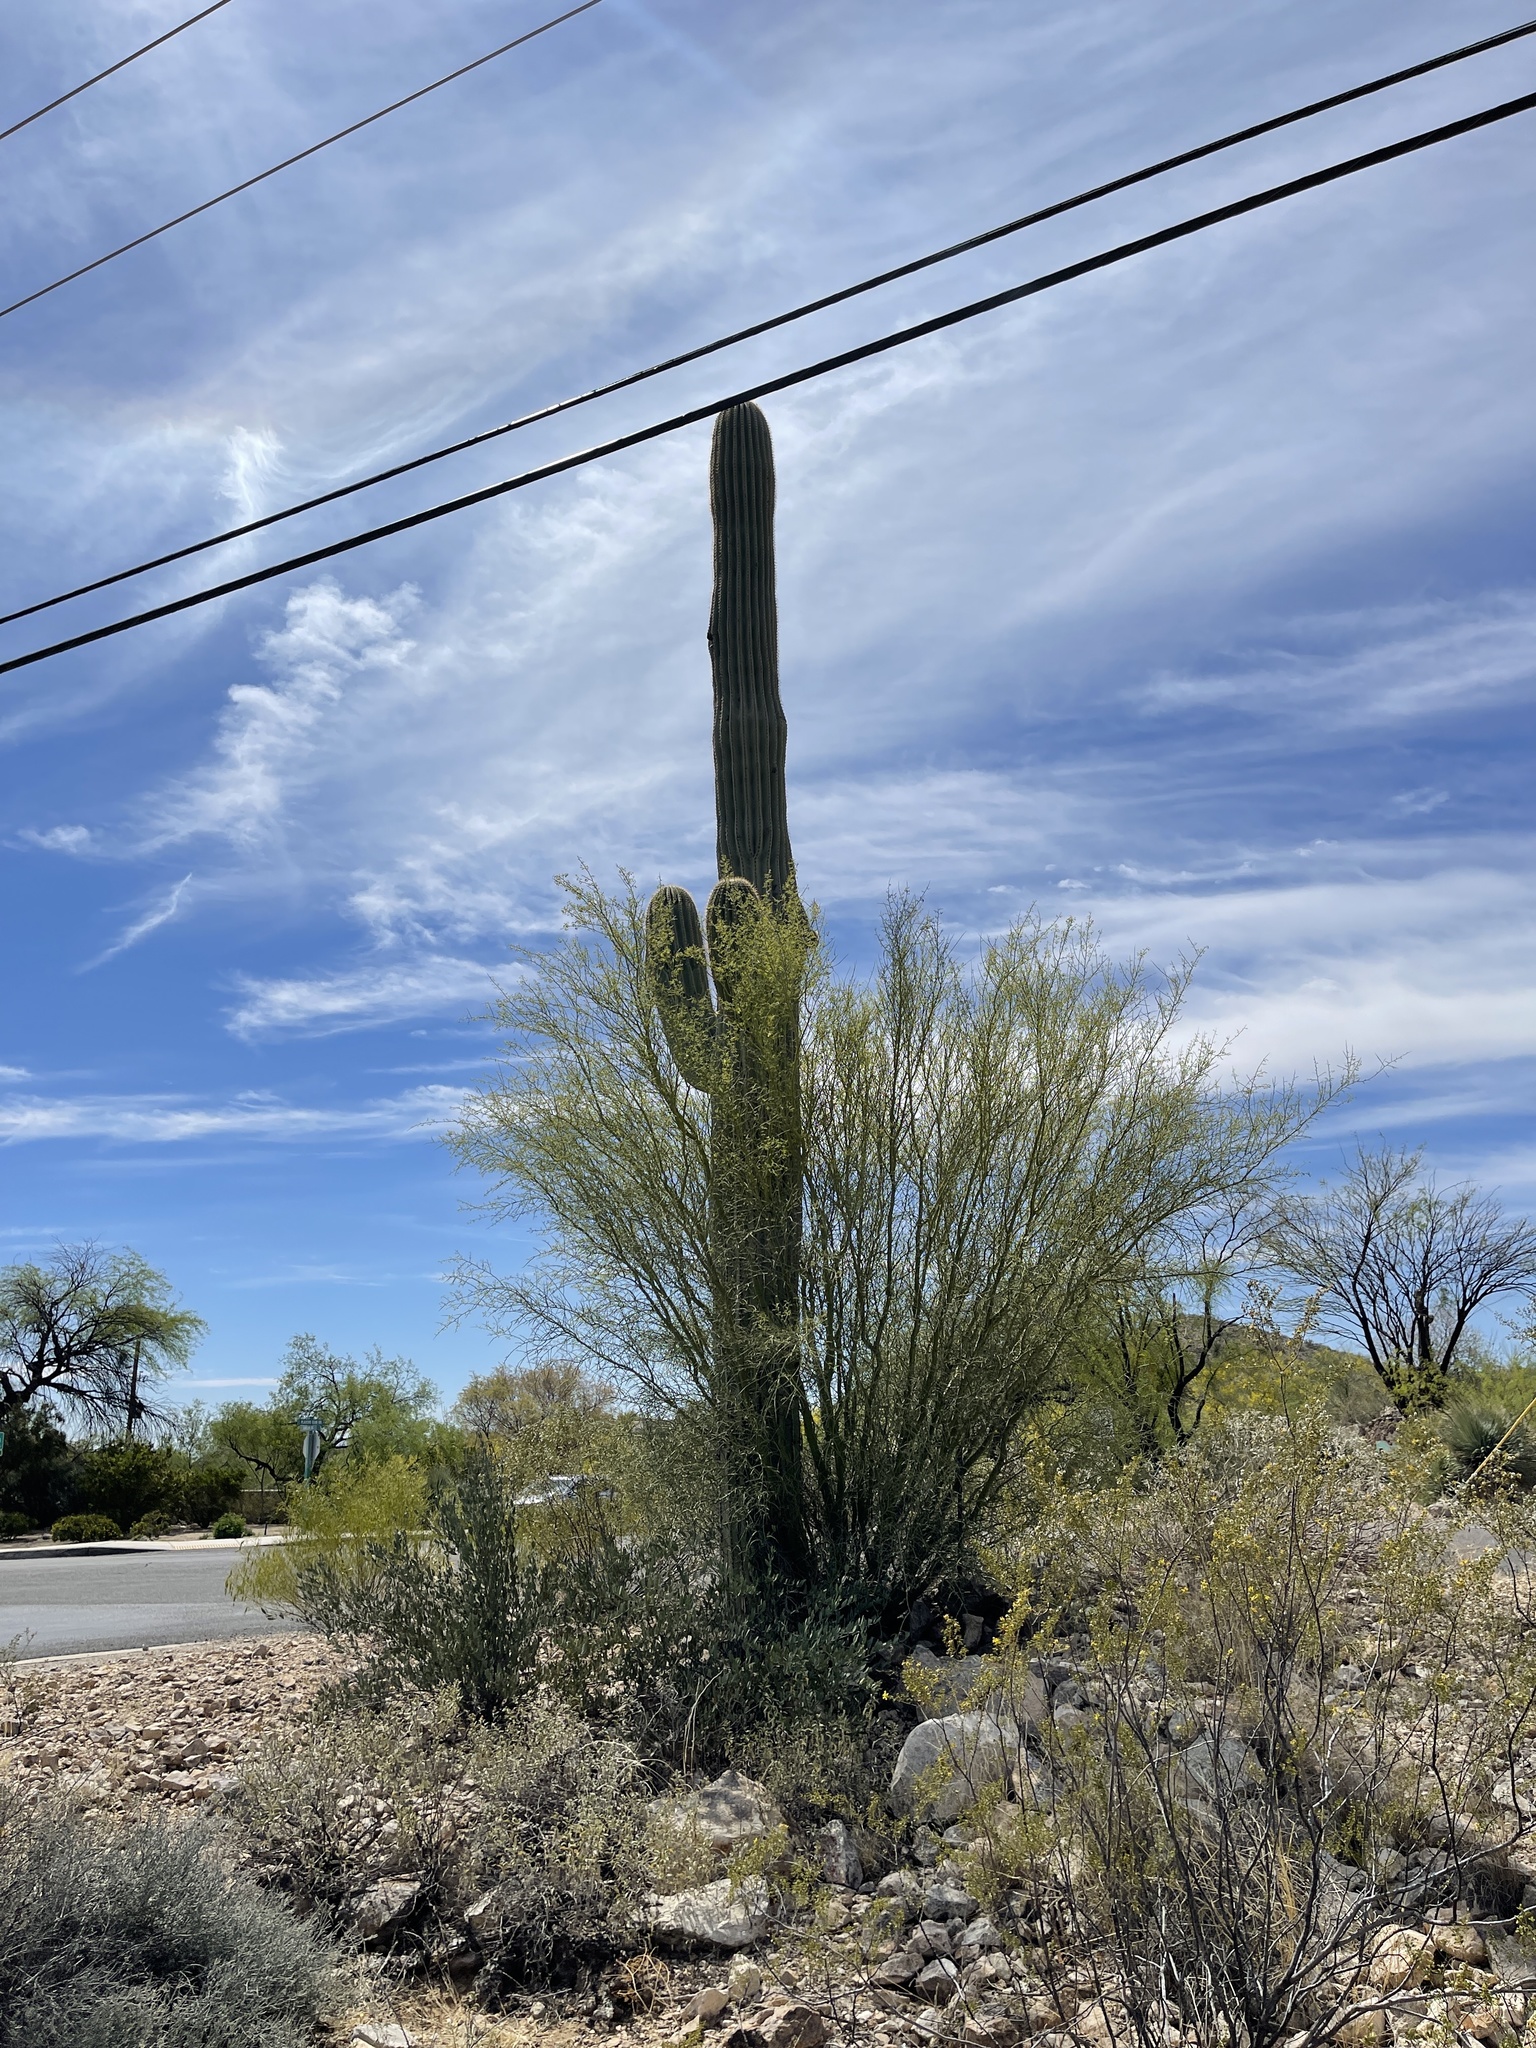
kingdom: Plantae
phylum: Tracheophyta
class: Magnoliopsida
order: Caryophyllales
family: Cactaceae
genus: Carnegiea
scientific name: Carnegiea gigantea
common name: Saguaro
